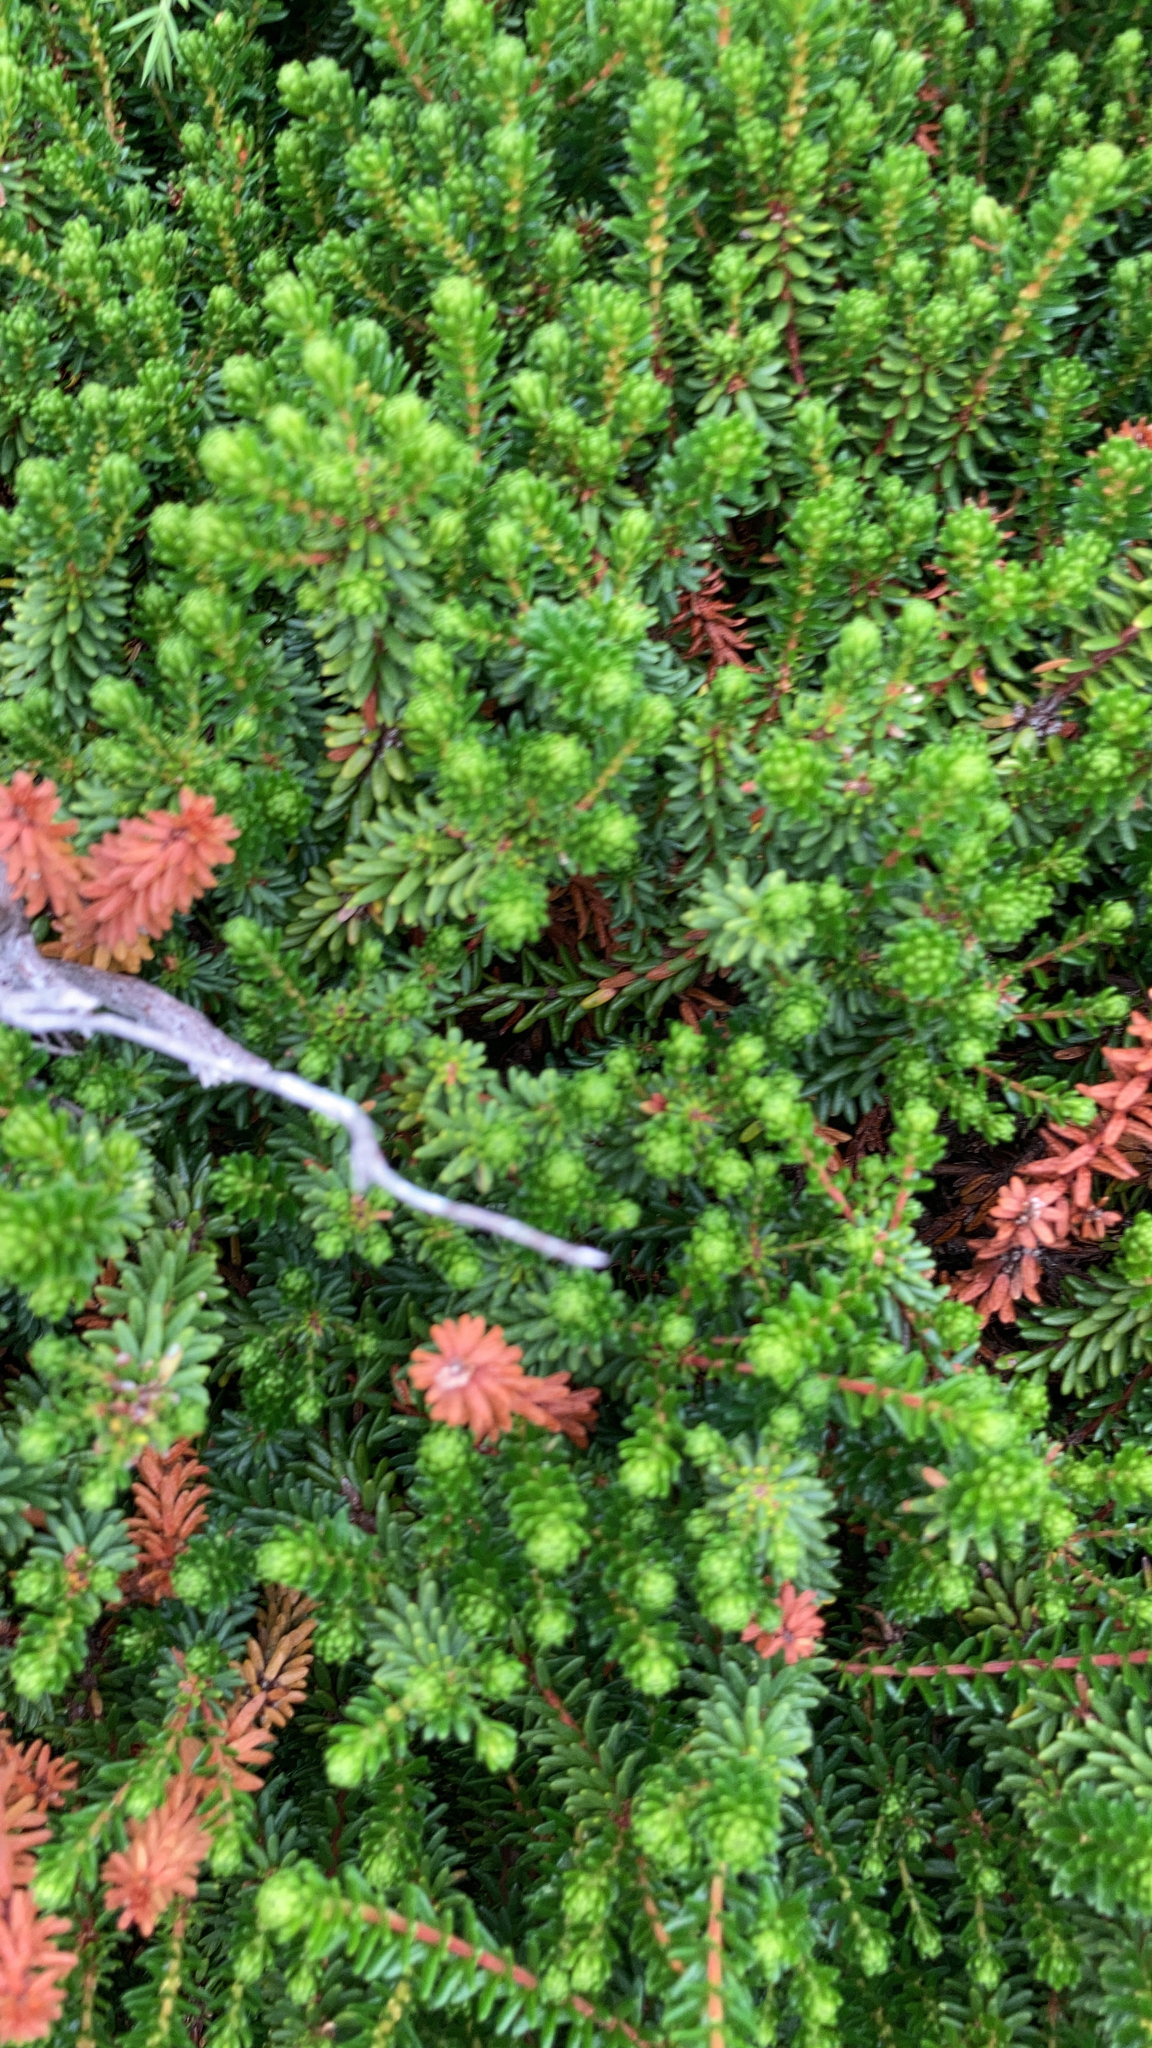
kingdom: Plantae
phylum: Tracheophyta
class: Magnoliopsida
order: Ericales
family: Ericaceae
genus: Empetrum
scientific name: Empetrum nigrum
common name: Black crowberry
